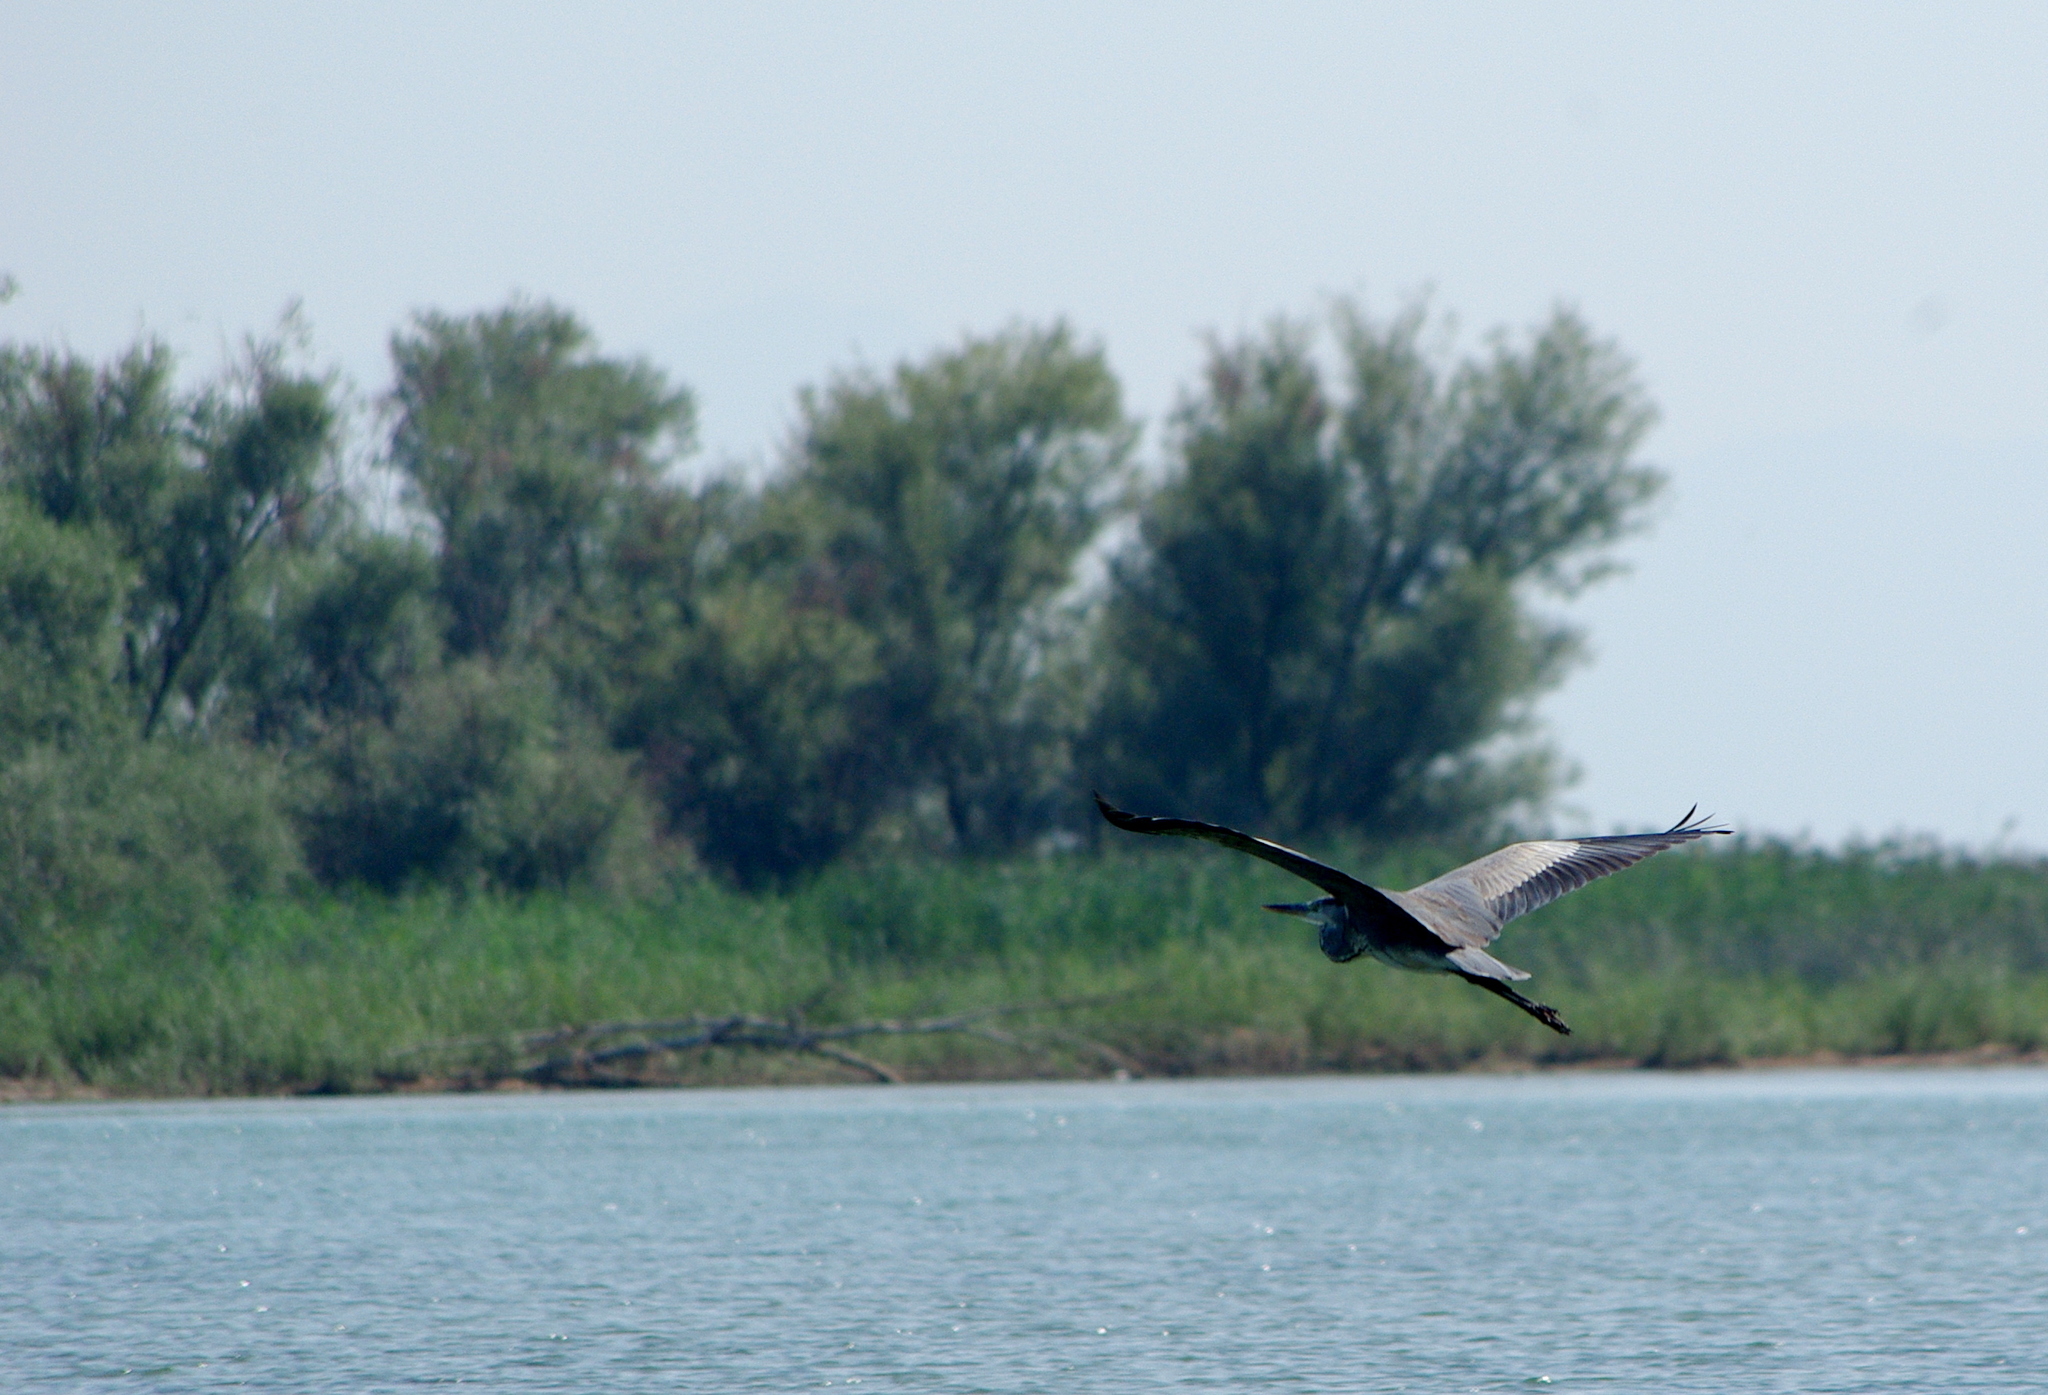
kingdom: Animalia
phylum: Chordata
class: Aves
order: Pelecaniformes
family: Ardeidae
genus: Ardea
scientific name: Ardea cinerea
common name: Grey heron
